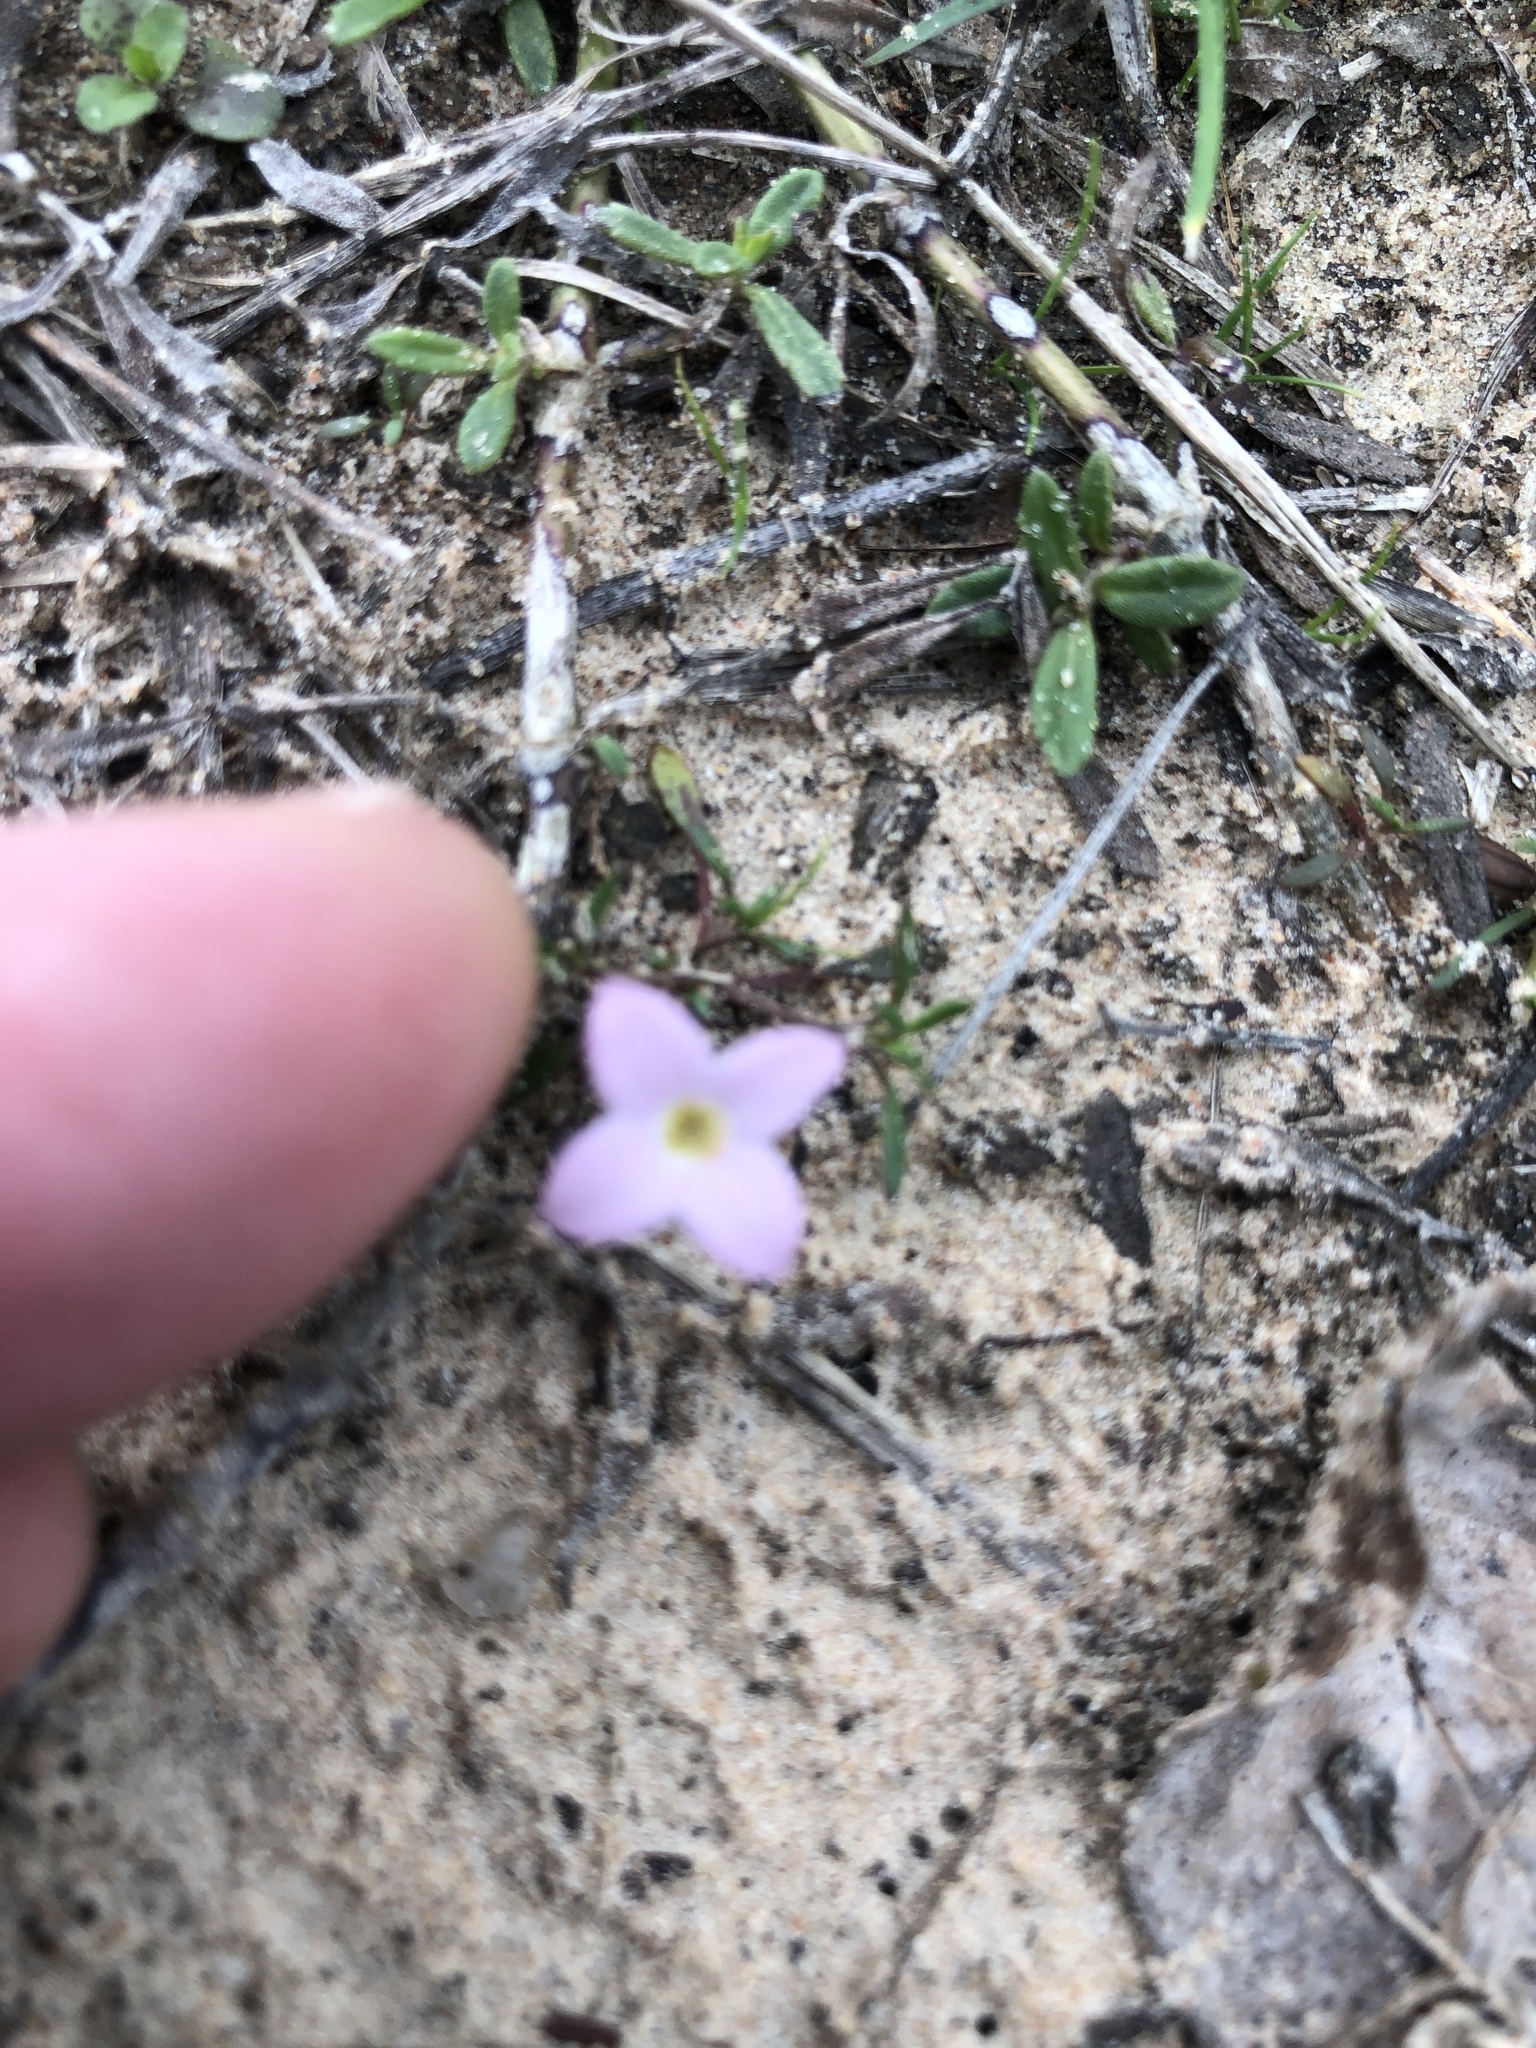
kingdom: Plantae
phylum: Tracheophyta
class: Magnoliopsida
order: Gentianales
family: Rubiaceae
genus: Houstonia
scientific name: Houstonia rosea
